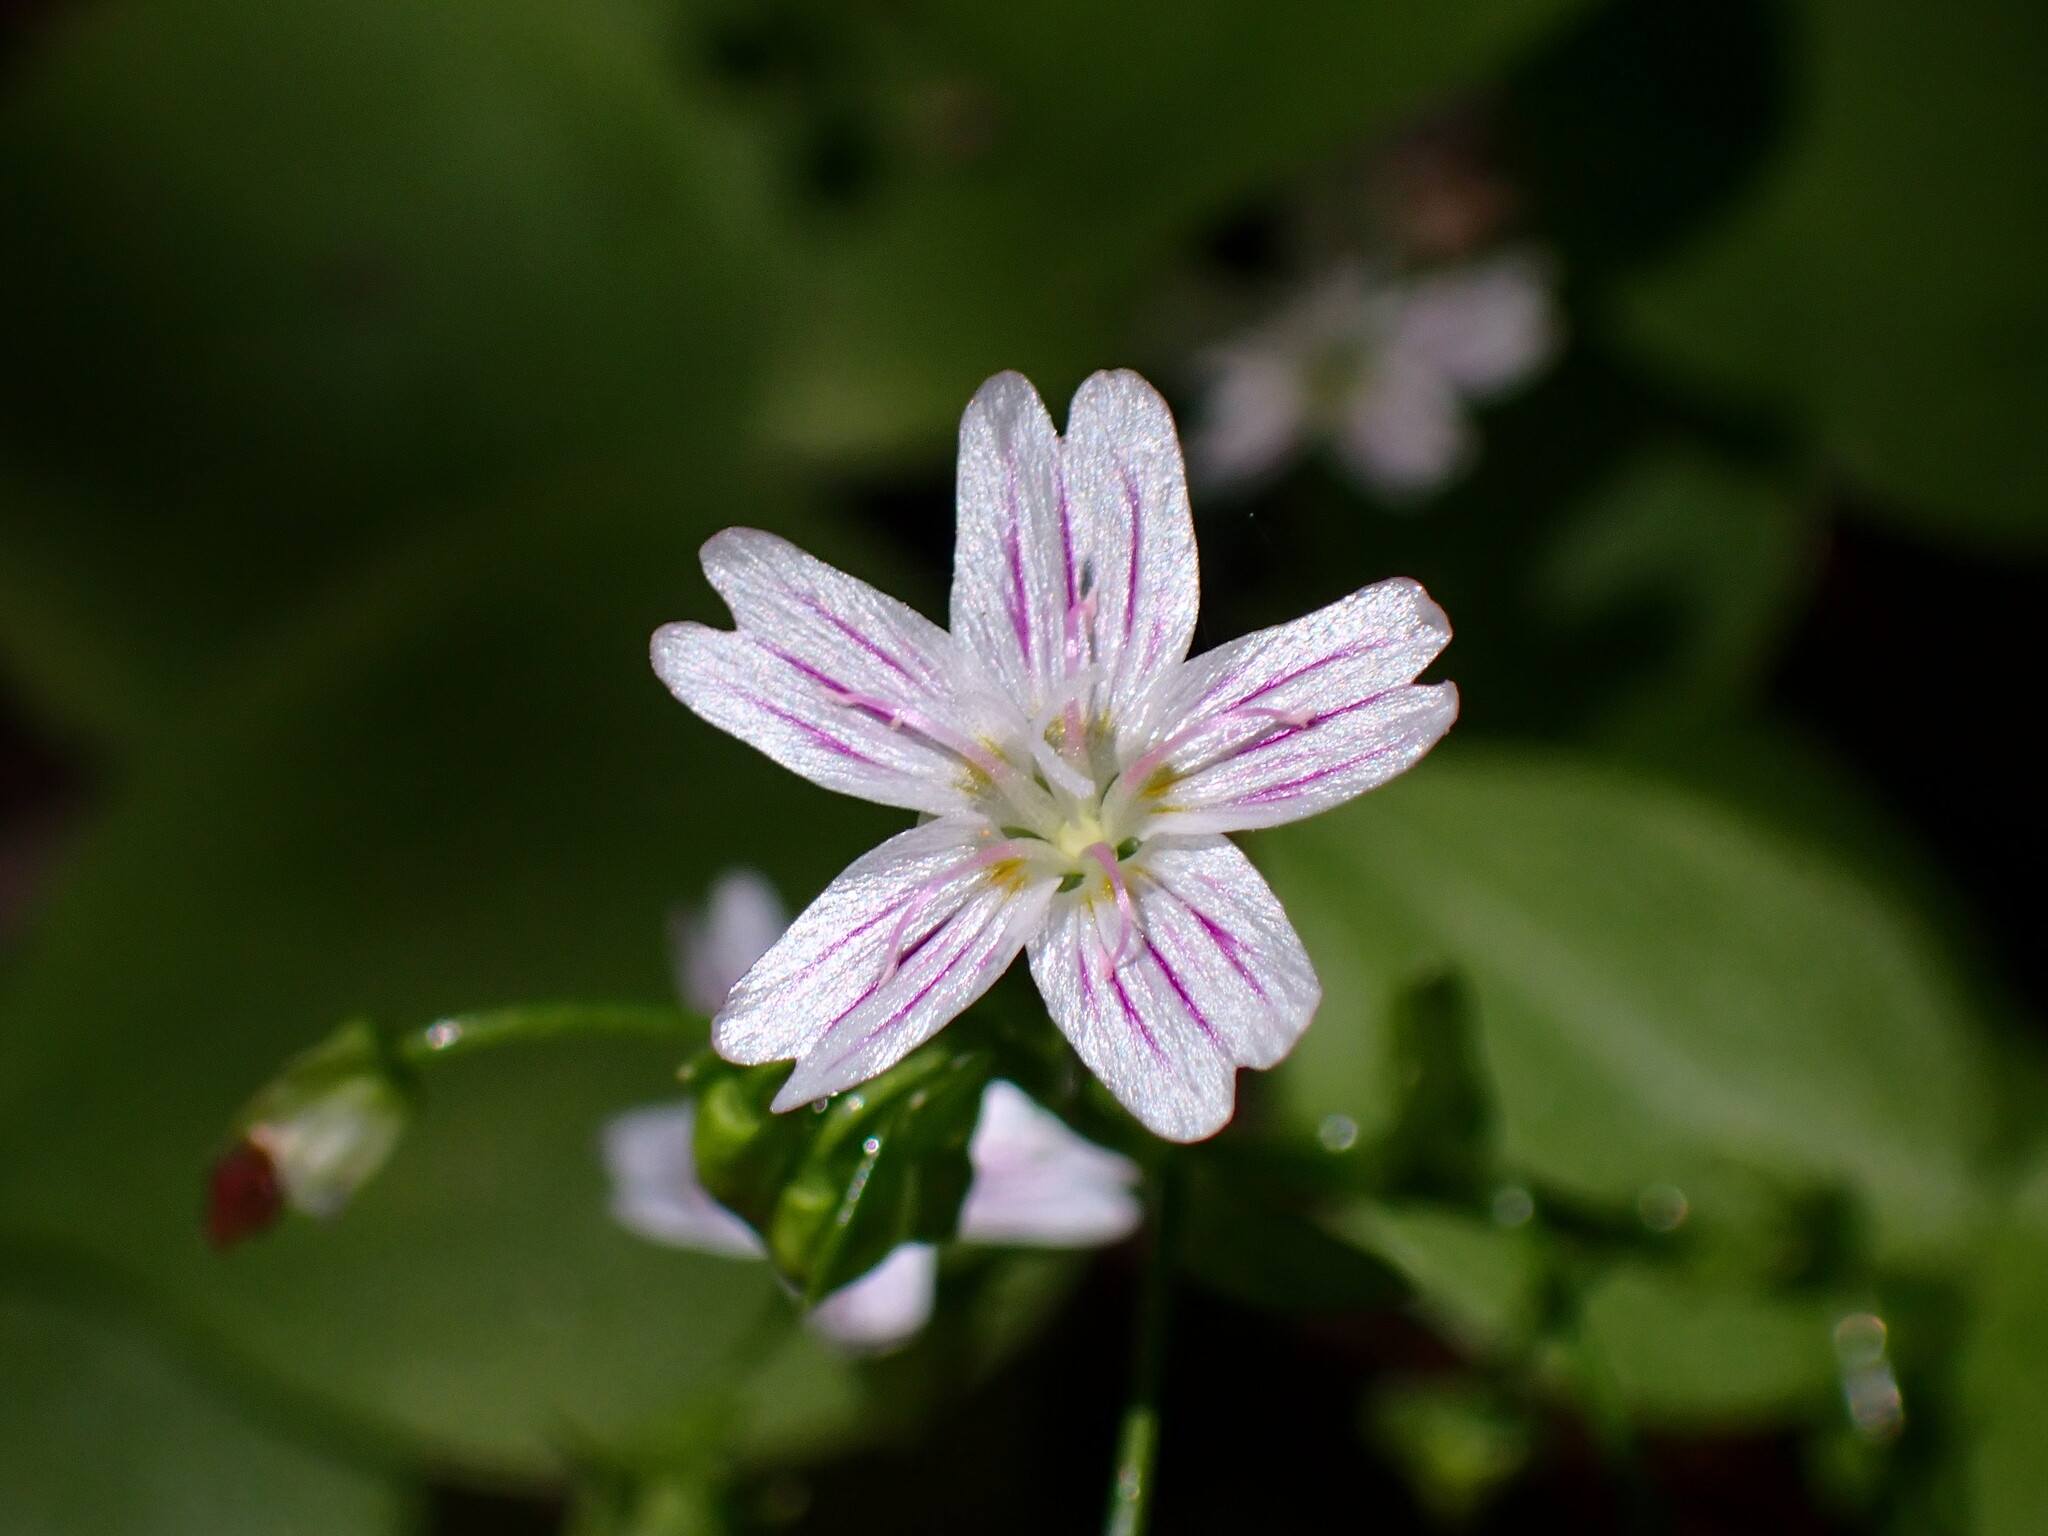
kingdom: Plantae
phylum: Tracheophyta
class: Magnoliopsida
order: Caryophyllales
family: Montiaceae
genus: Claytonia
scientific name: Claytonia sibirica
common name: Pink purslane
